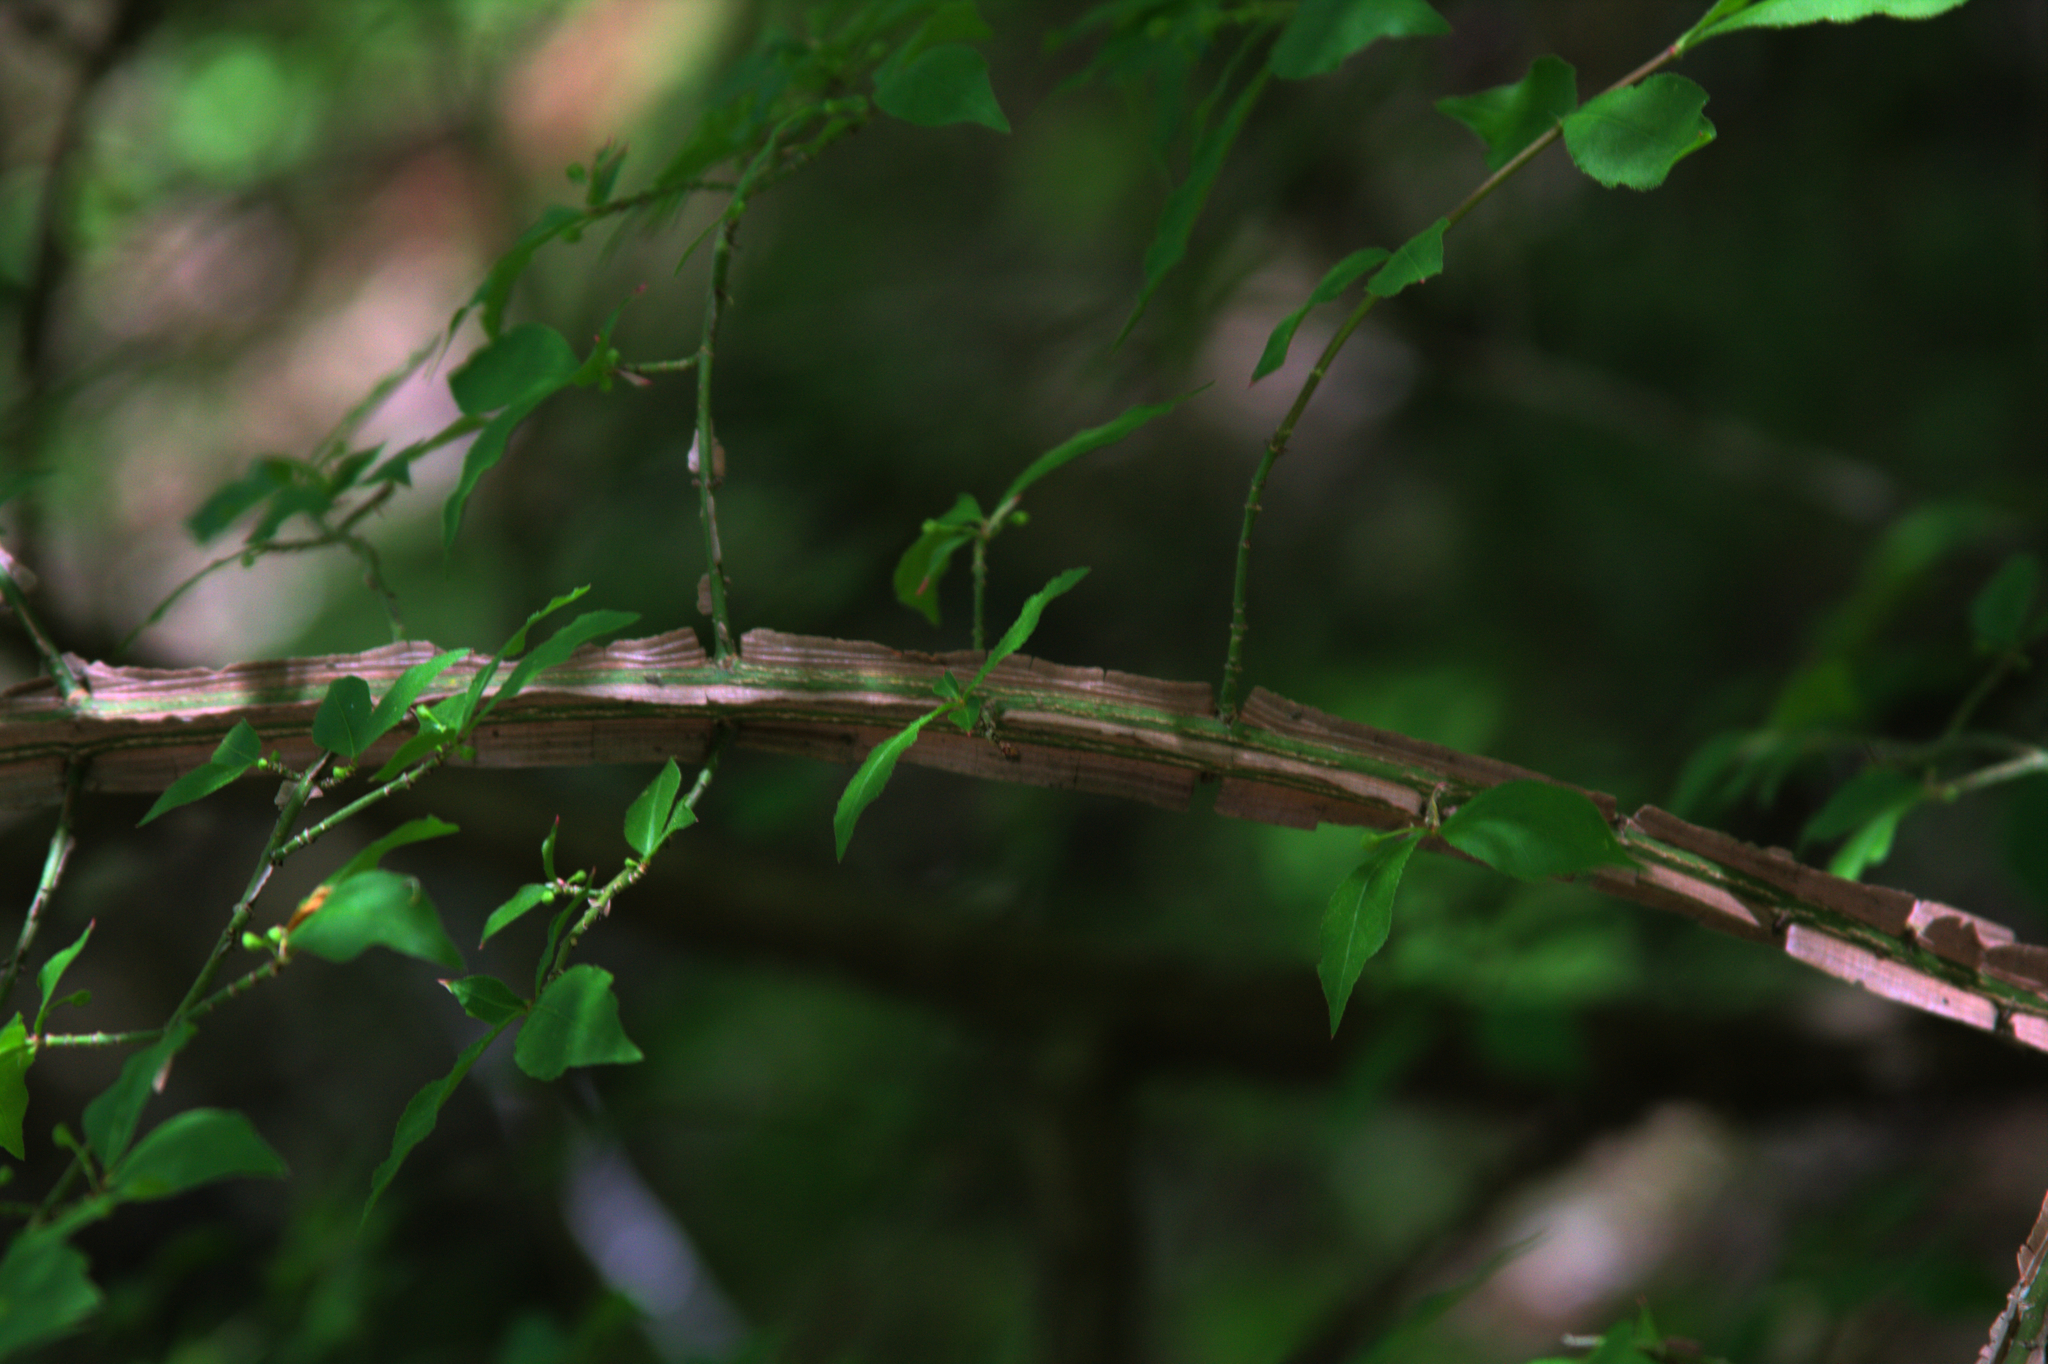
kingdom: Plantae
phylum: Tracheophyta
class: Magnoliopsida
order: Celastrales
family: Celastraceae
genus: Euonymus
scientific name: Euonymus alatus
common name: Winged euonymus
